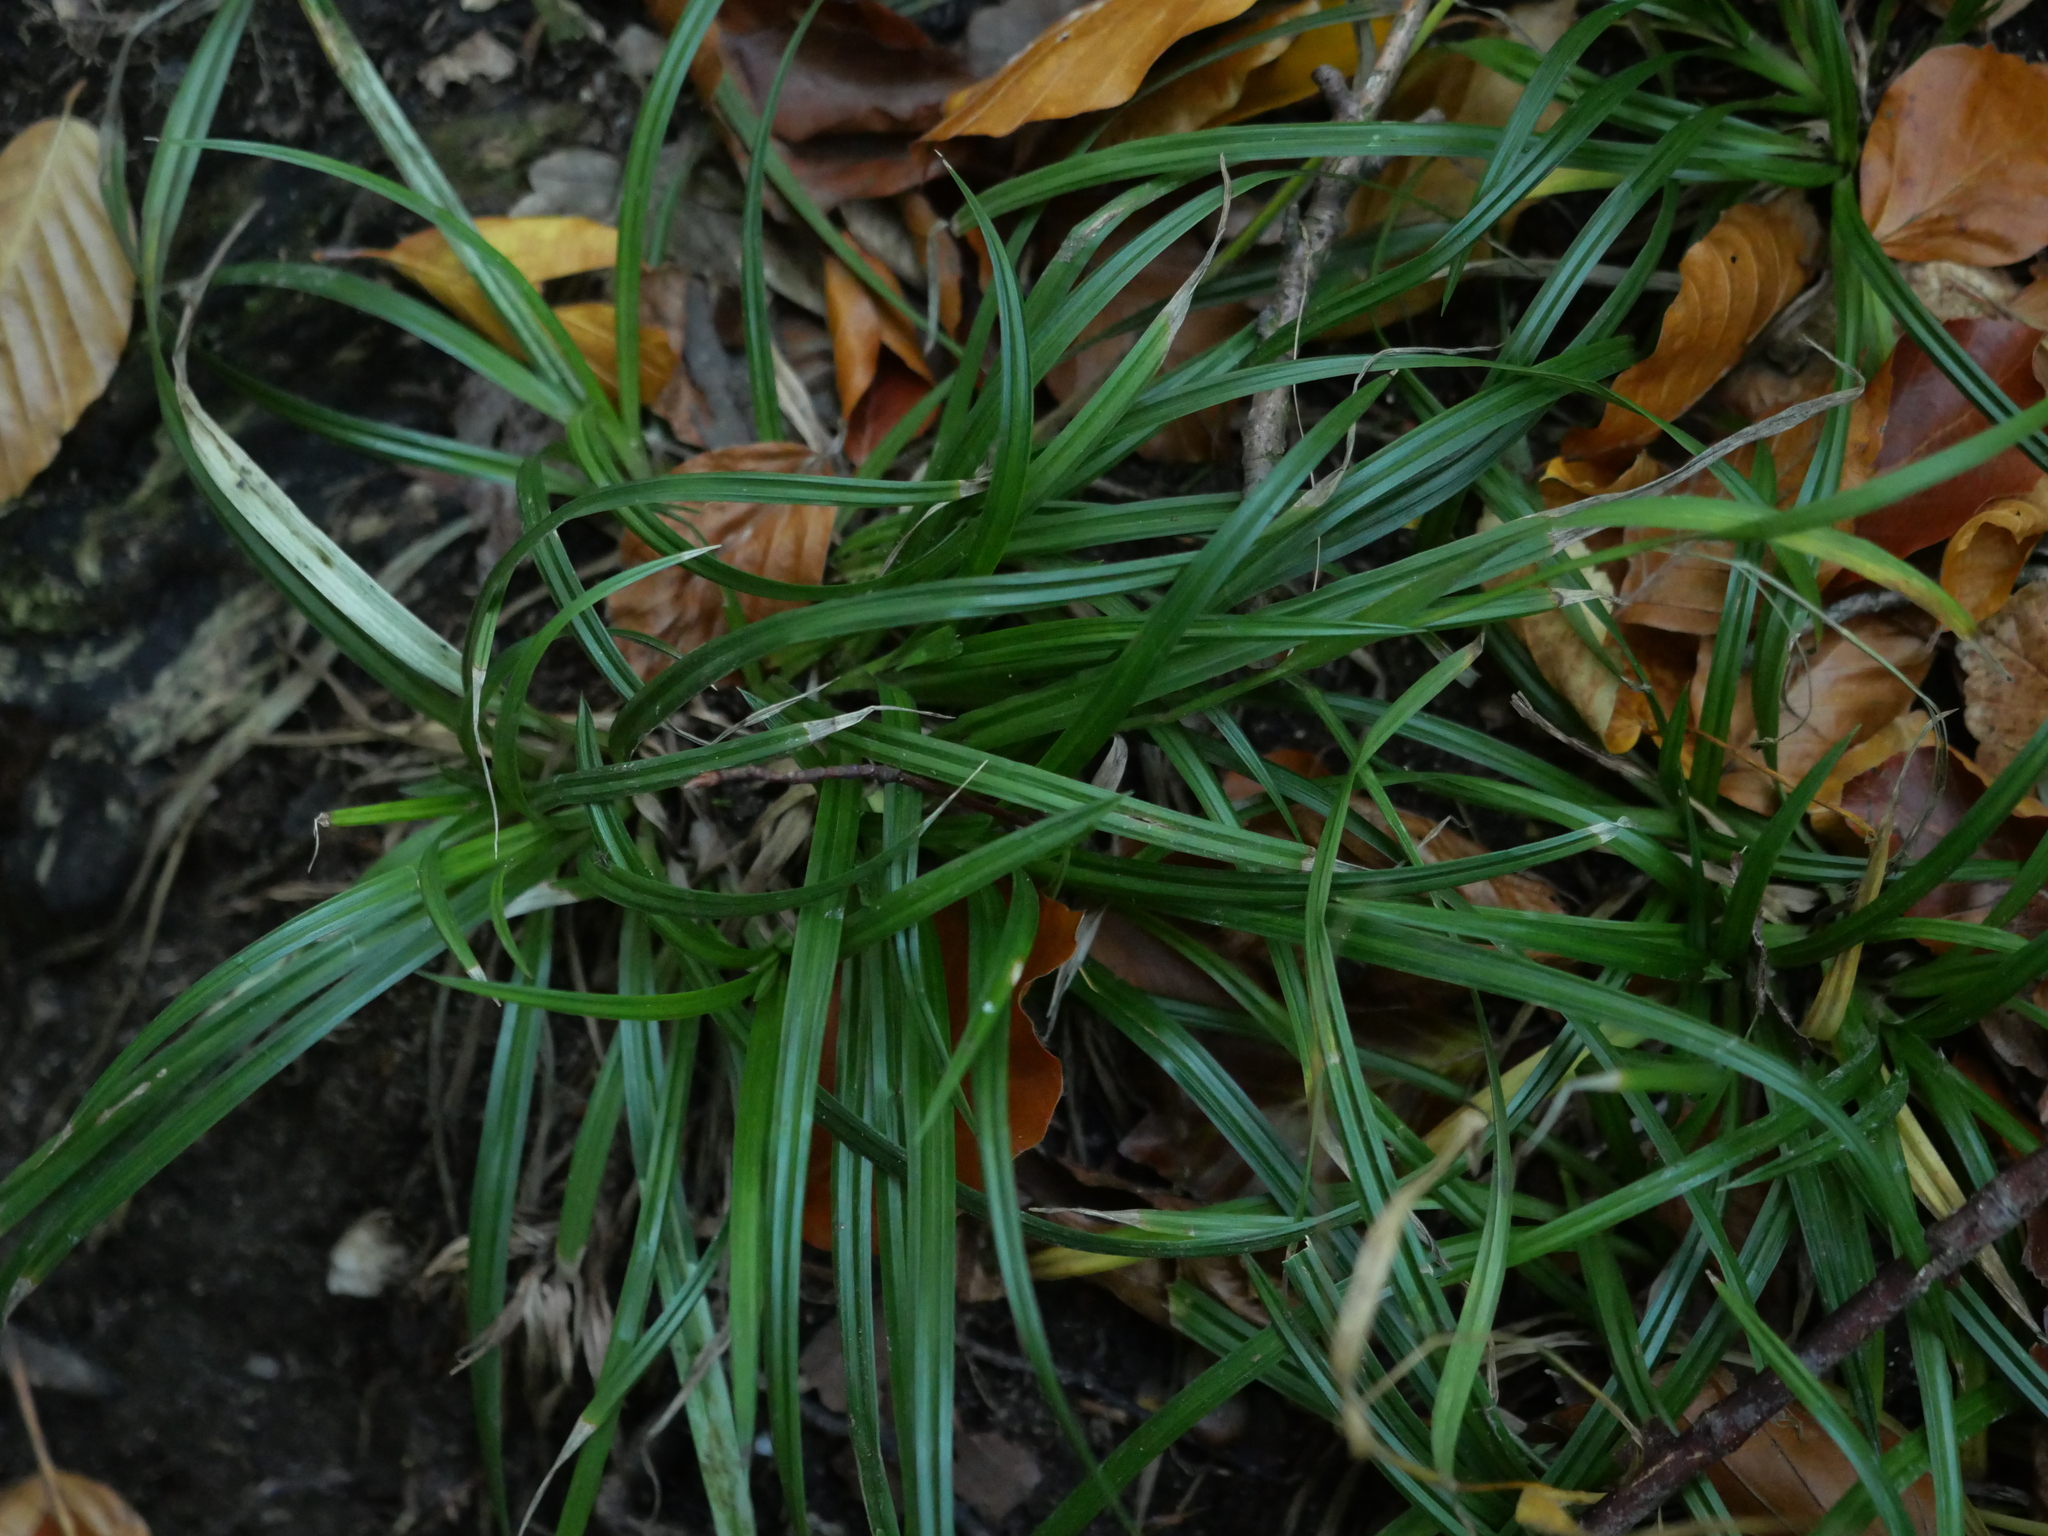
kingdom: Plantae
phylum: Tracheophyta
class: Liliopsida
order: Poales
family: Cyperaceae
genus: Carex
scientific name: Carex sylvatica
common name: Wood-sedge
